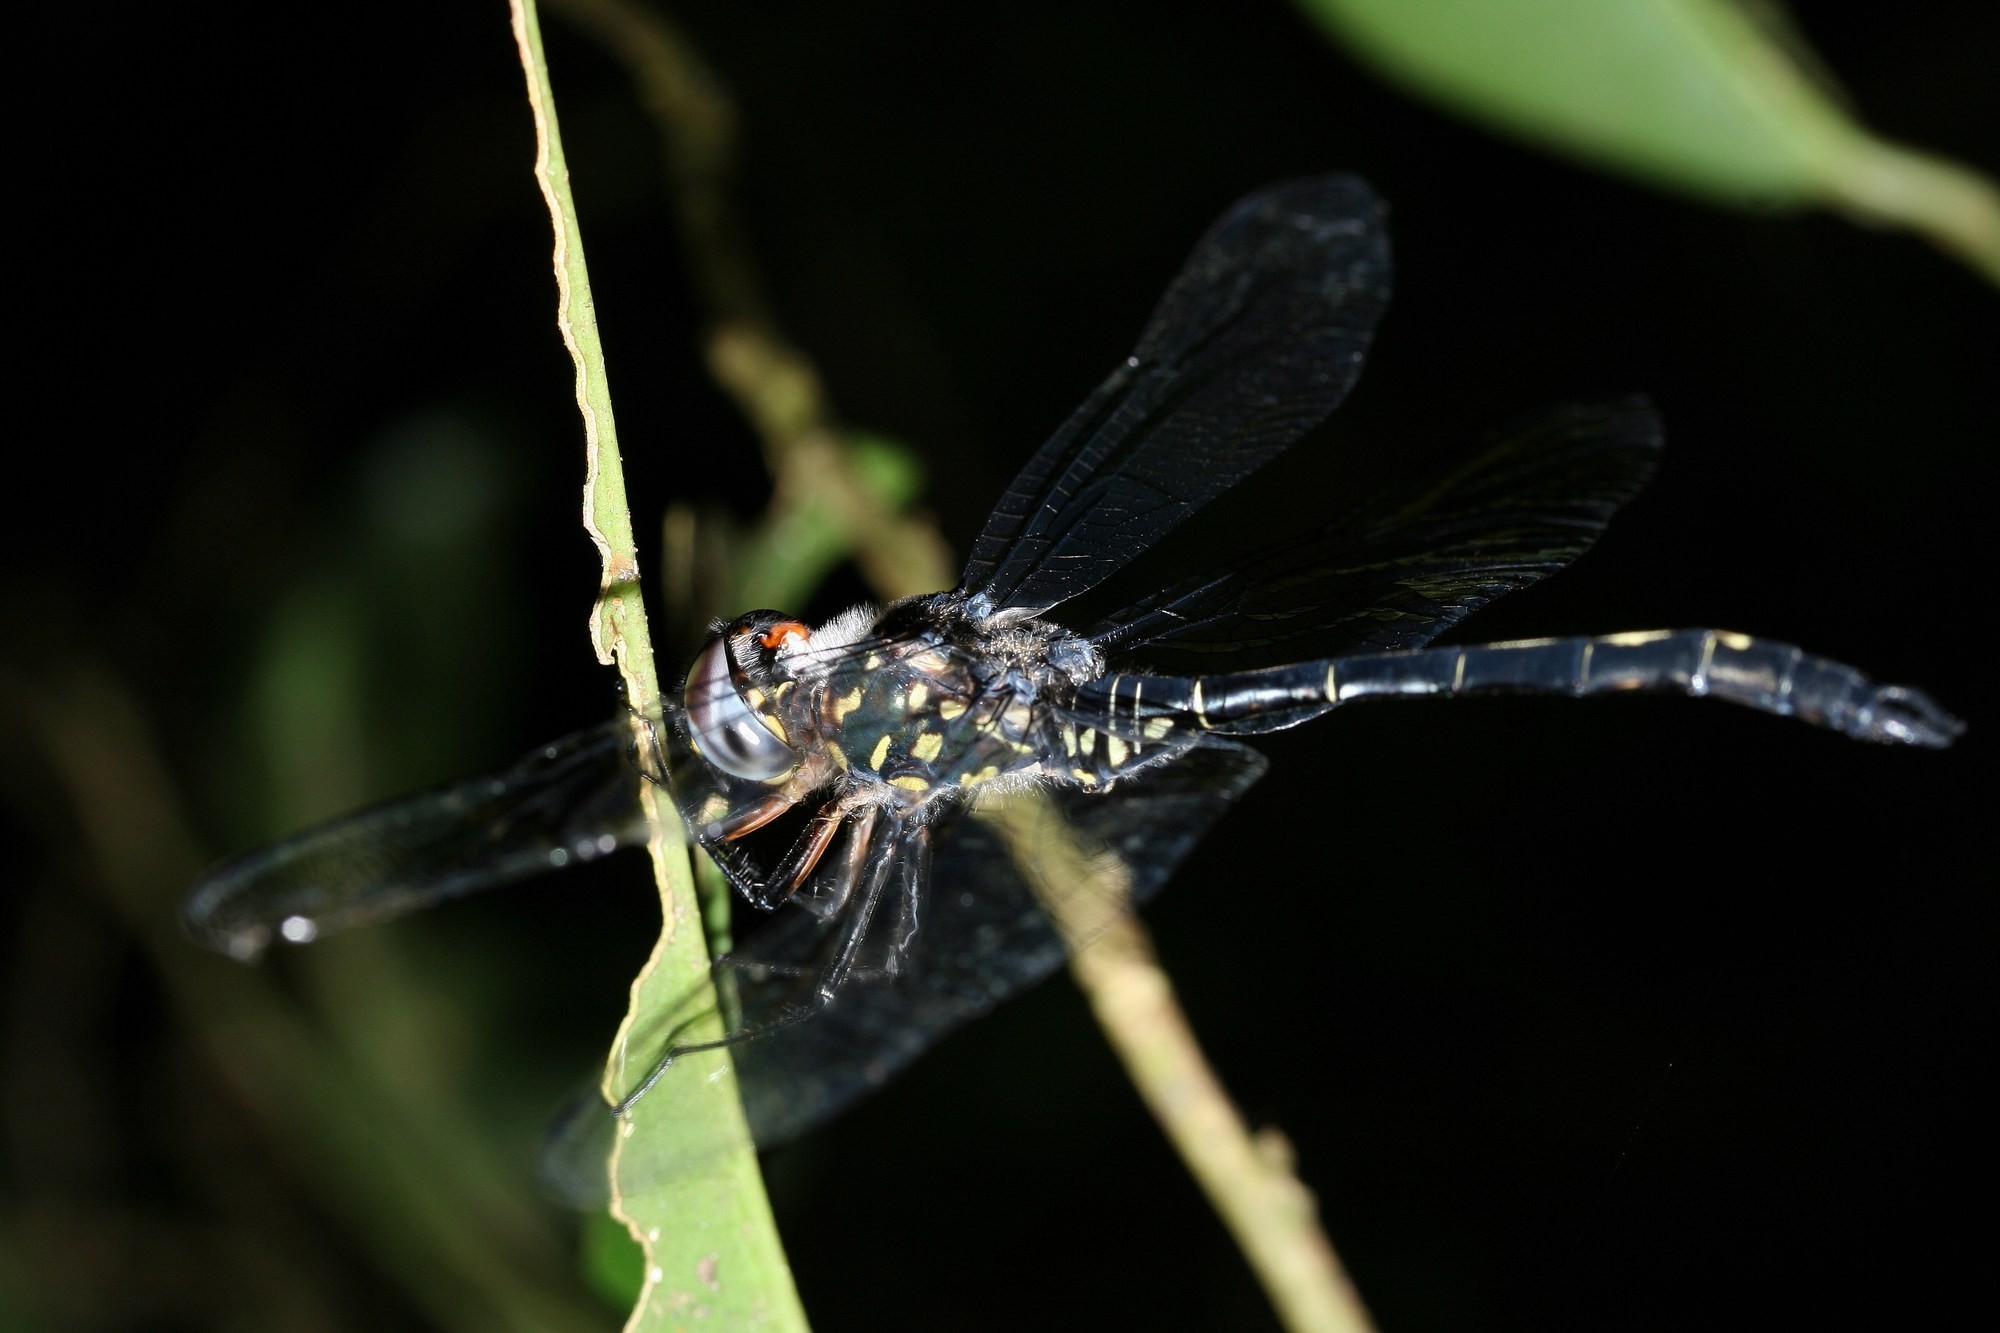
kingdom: Animalia
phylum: Arthropoda
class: Insecta
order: Odonata
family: Libellulidae
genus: Zygonyx
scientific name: Zygonyx ranavalonae
